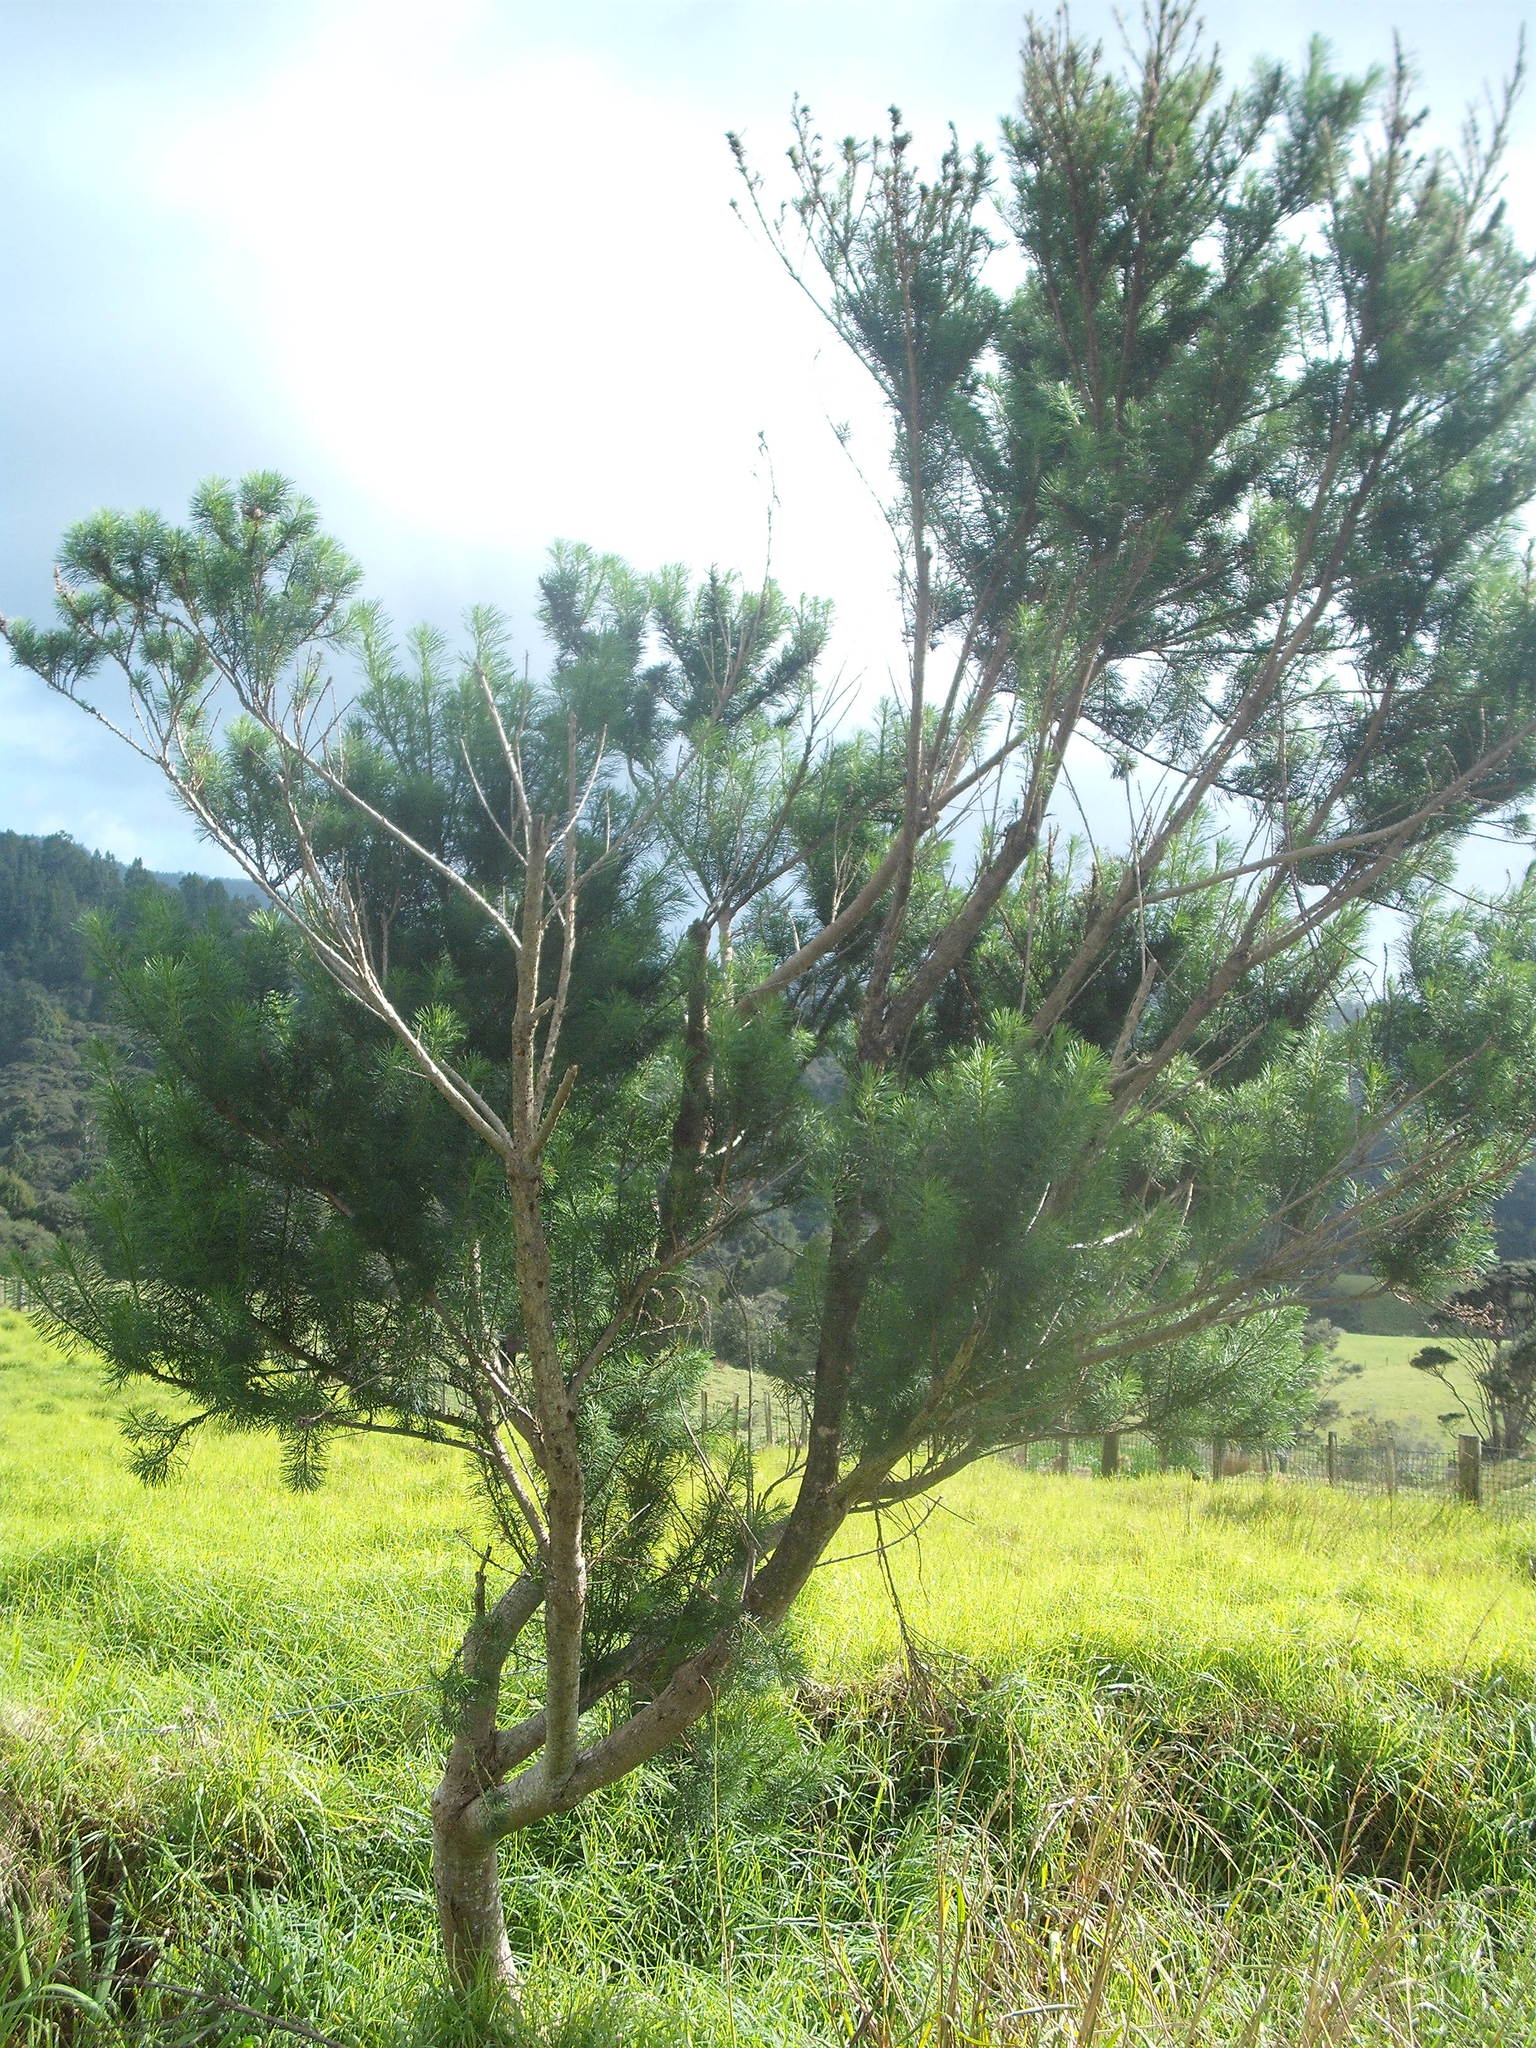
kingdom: Plantae
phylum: Tracheophyta
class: Magnoliopsida
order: Fabales
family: Fabaceae
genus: Psoralea
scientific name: Psoralea pinnata
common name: African scurfpea
